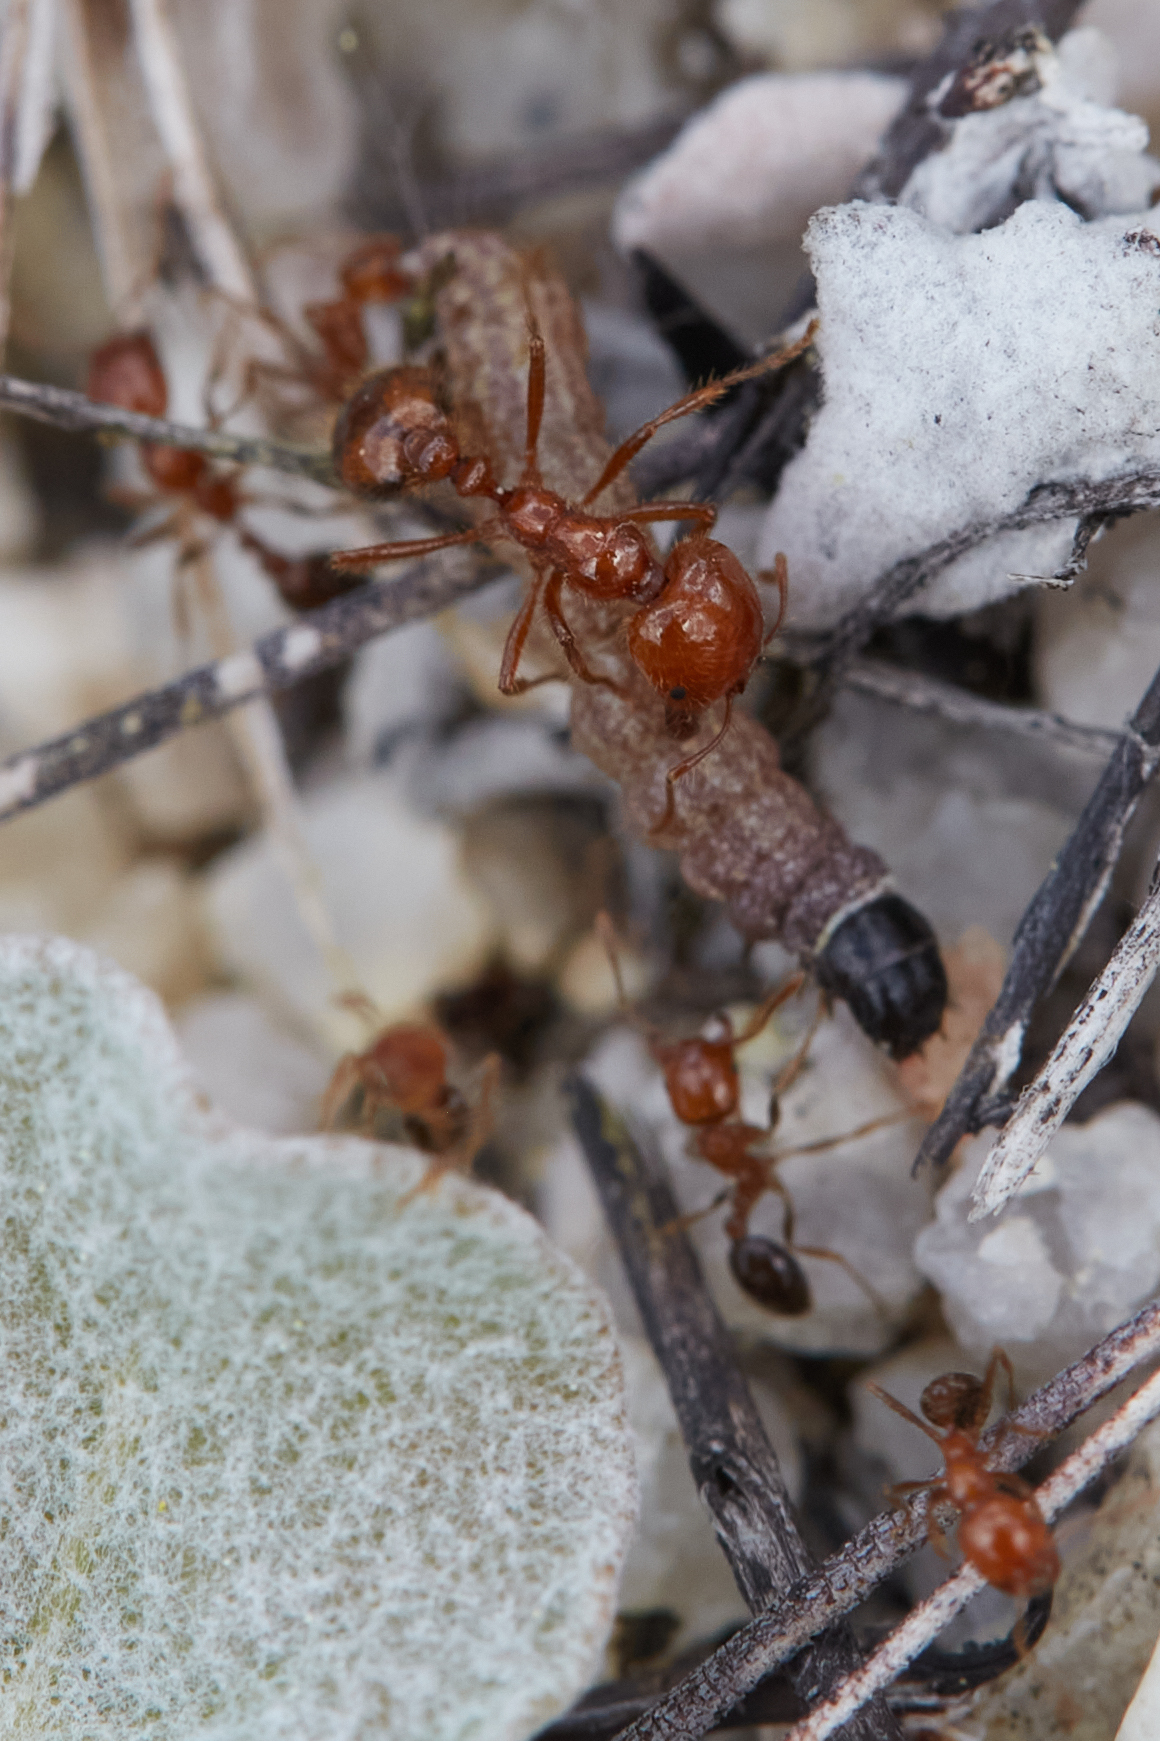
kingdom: Animalia
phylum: Arthropoda
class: Insecta
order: Hymenoptera
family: Formicidae
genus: Solenopsis
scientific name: Solenopsis xyloni
